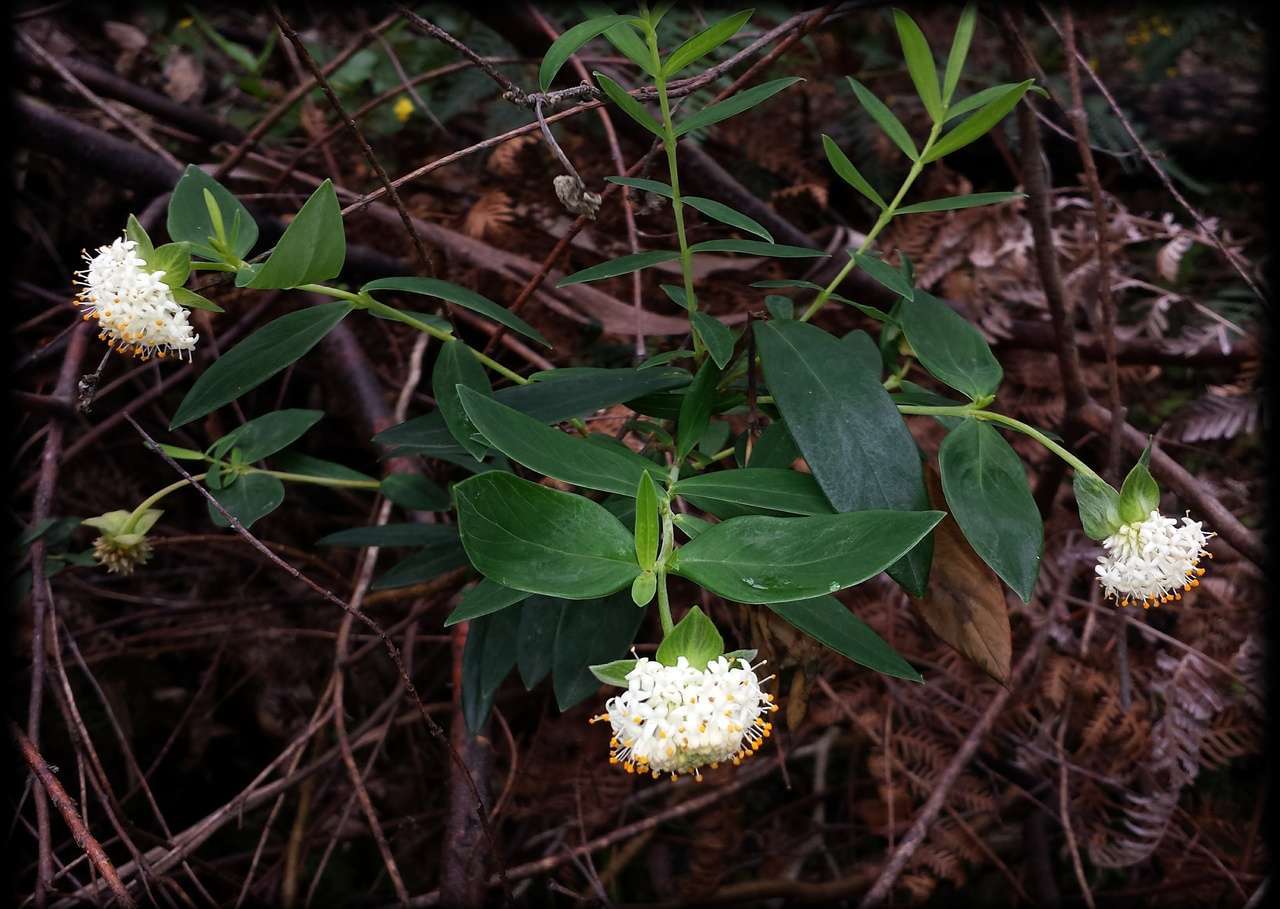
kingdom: Plantae
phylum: Tracheophyta
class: Magnoliopsida
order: Malvales
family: Thymelaeaceae
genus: Pimelea
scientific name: Pimelea ligustrina
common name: Tall riceflower
